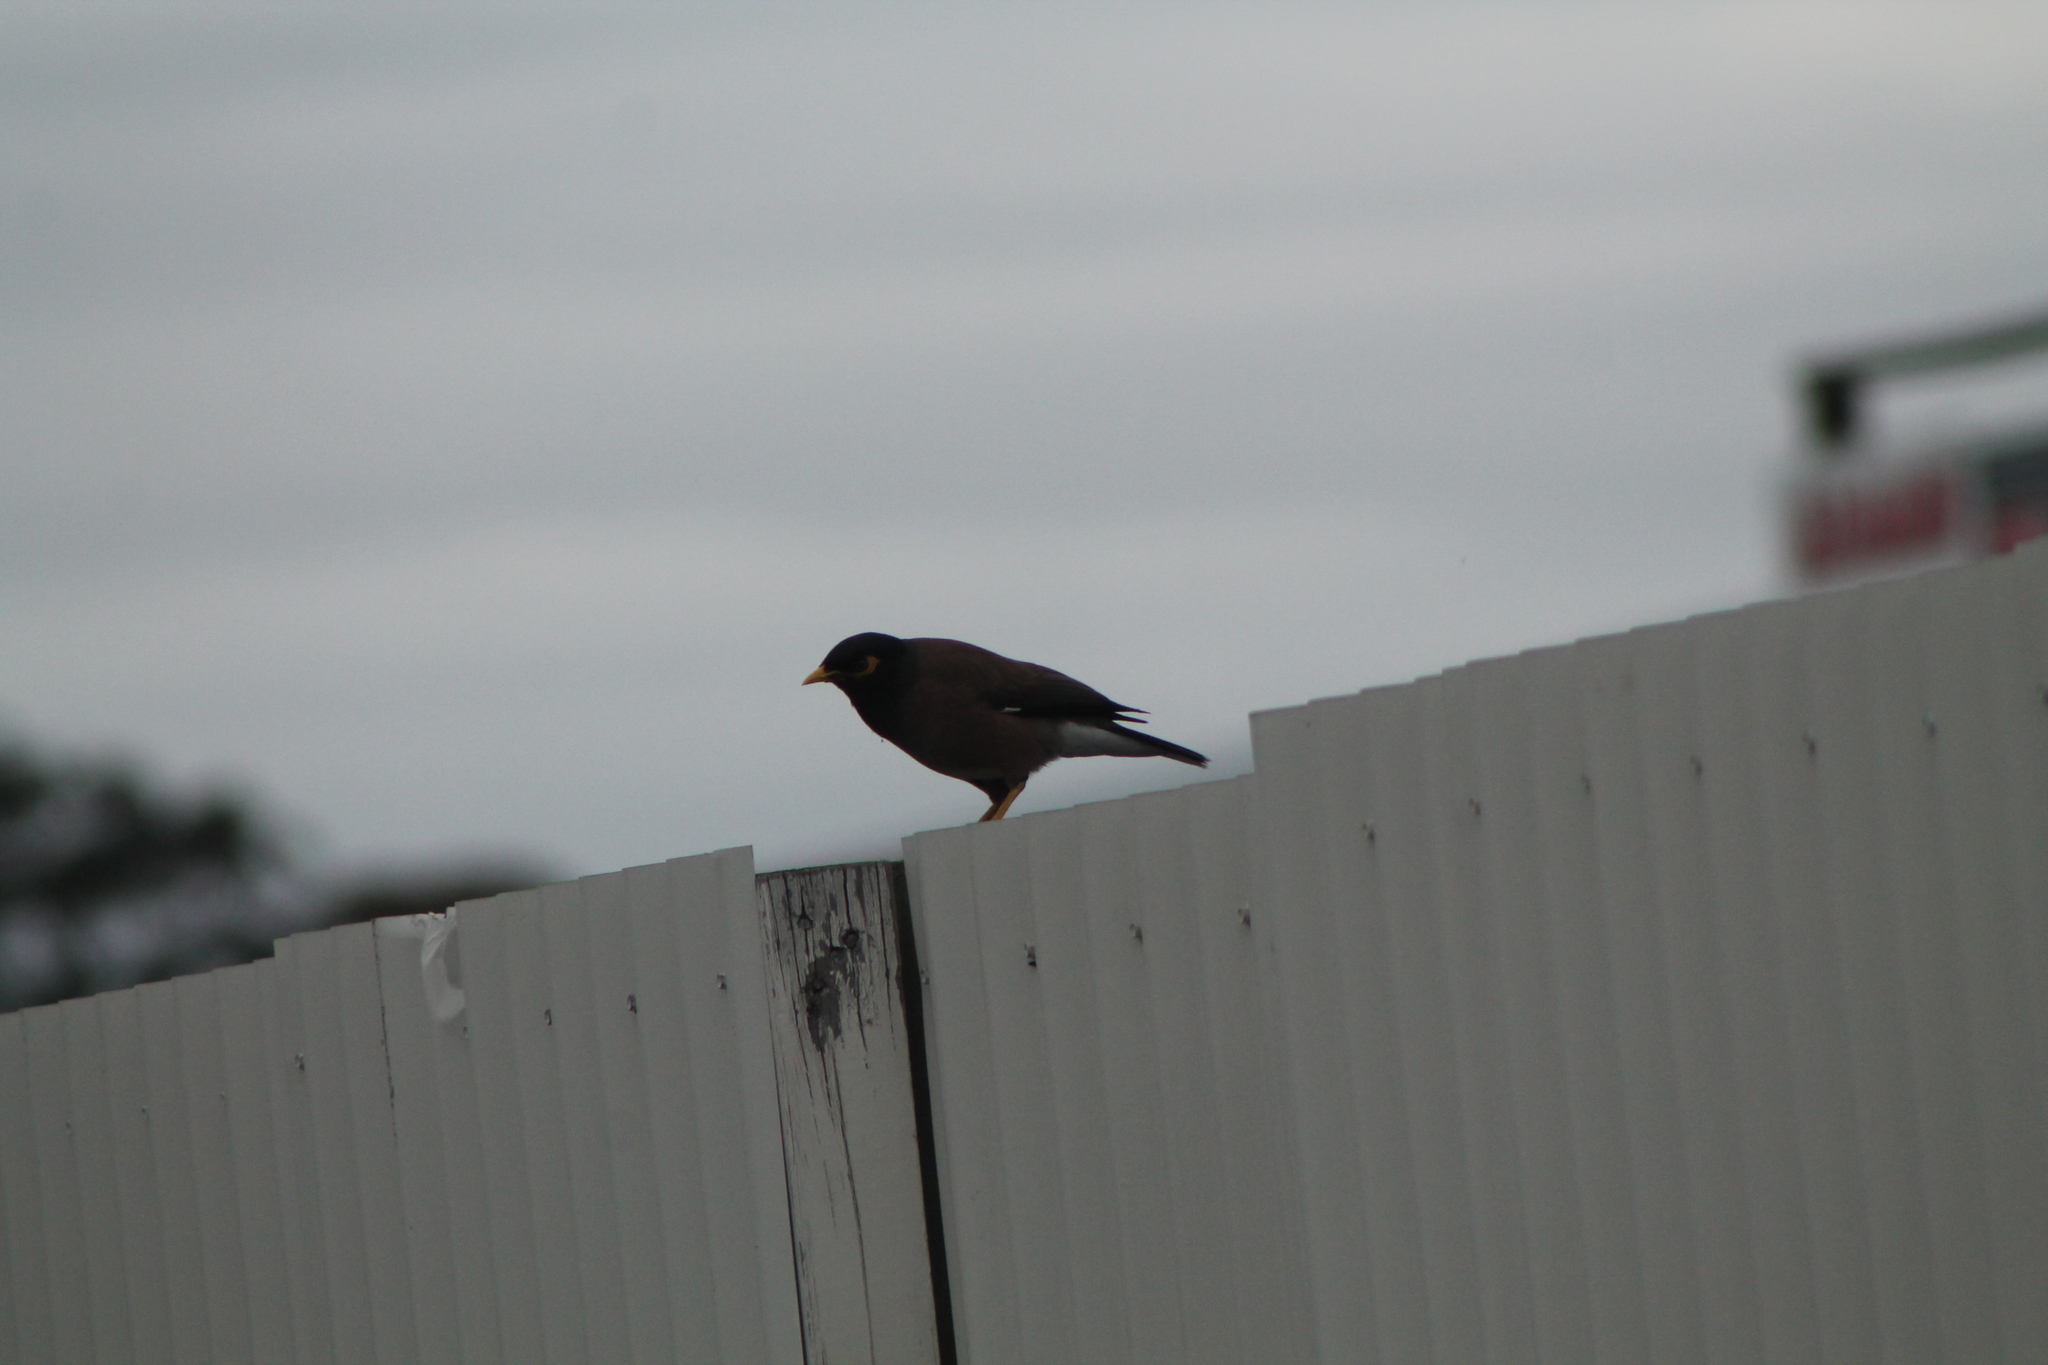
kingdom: Animalia
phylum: Chordata
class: Aves
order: Passeriformes
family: Sturnidae
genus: Acridotheres
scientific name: Acridotheres tristis
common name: Common myna
